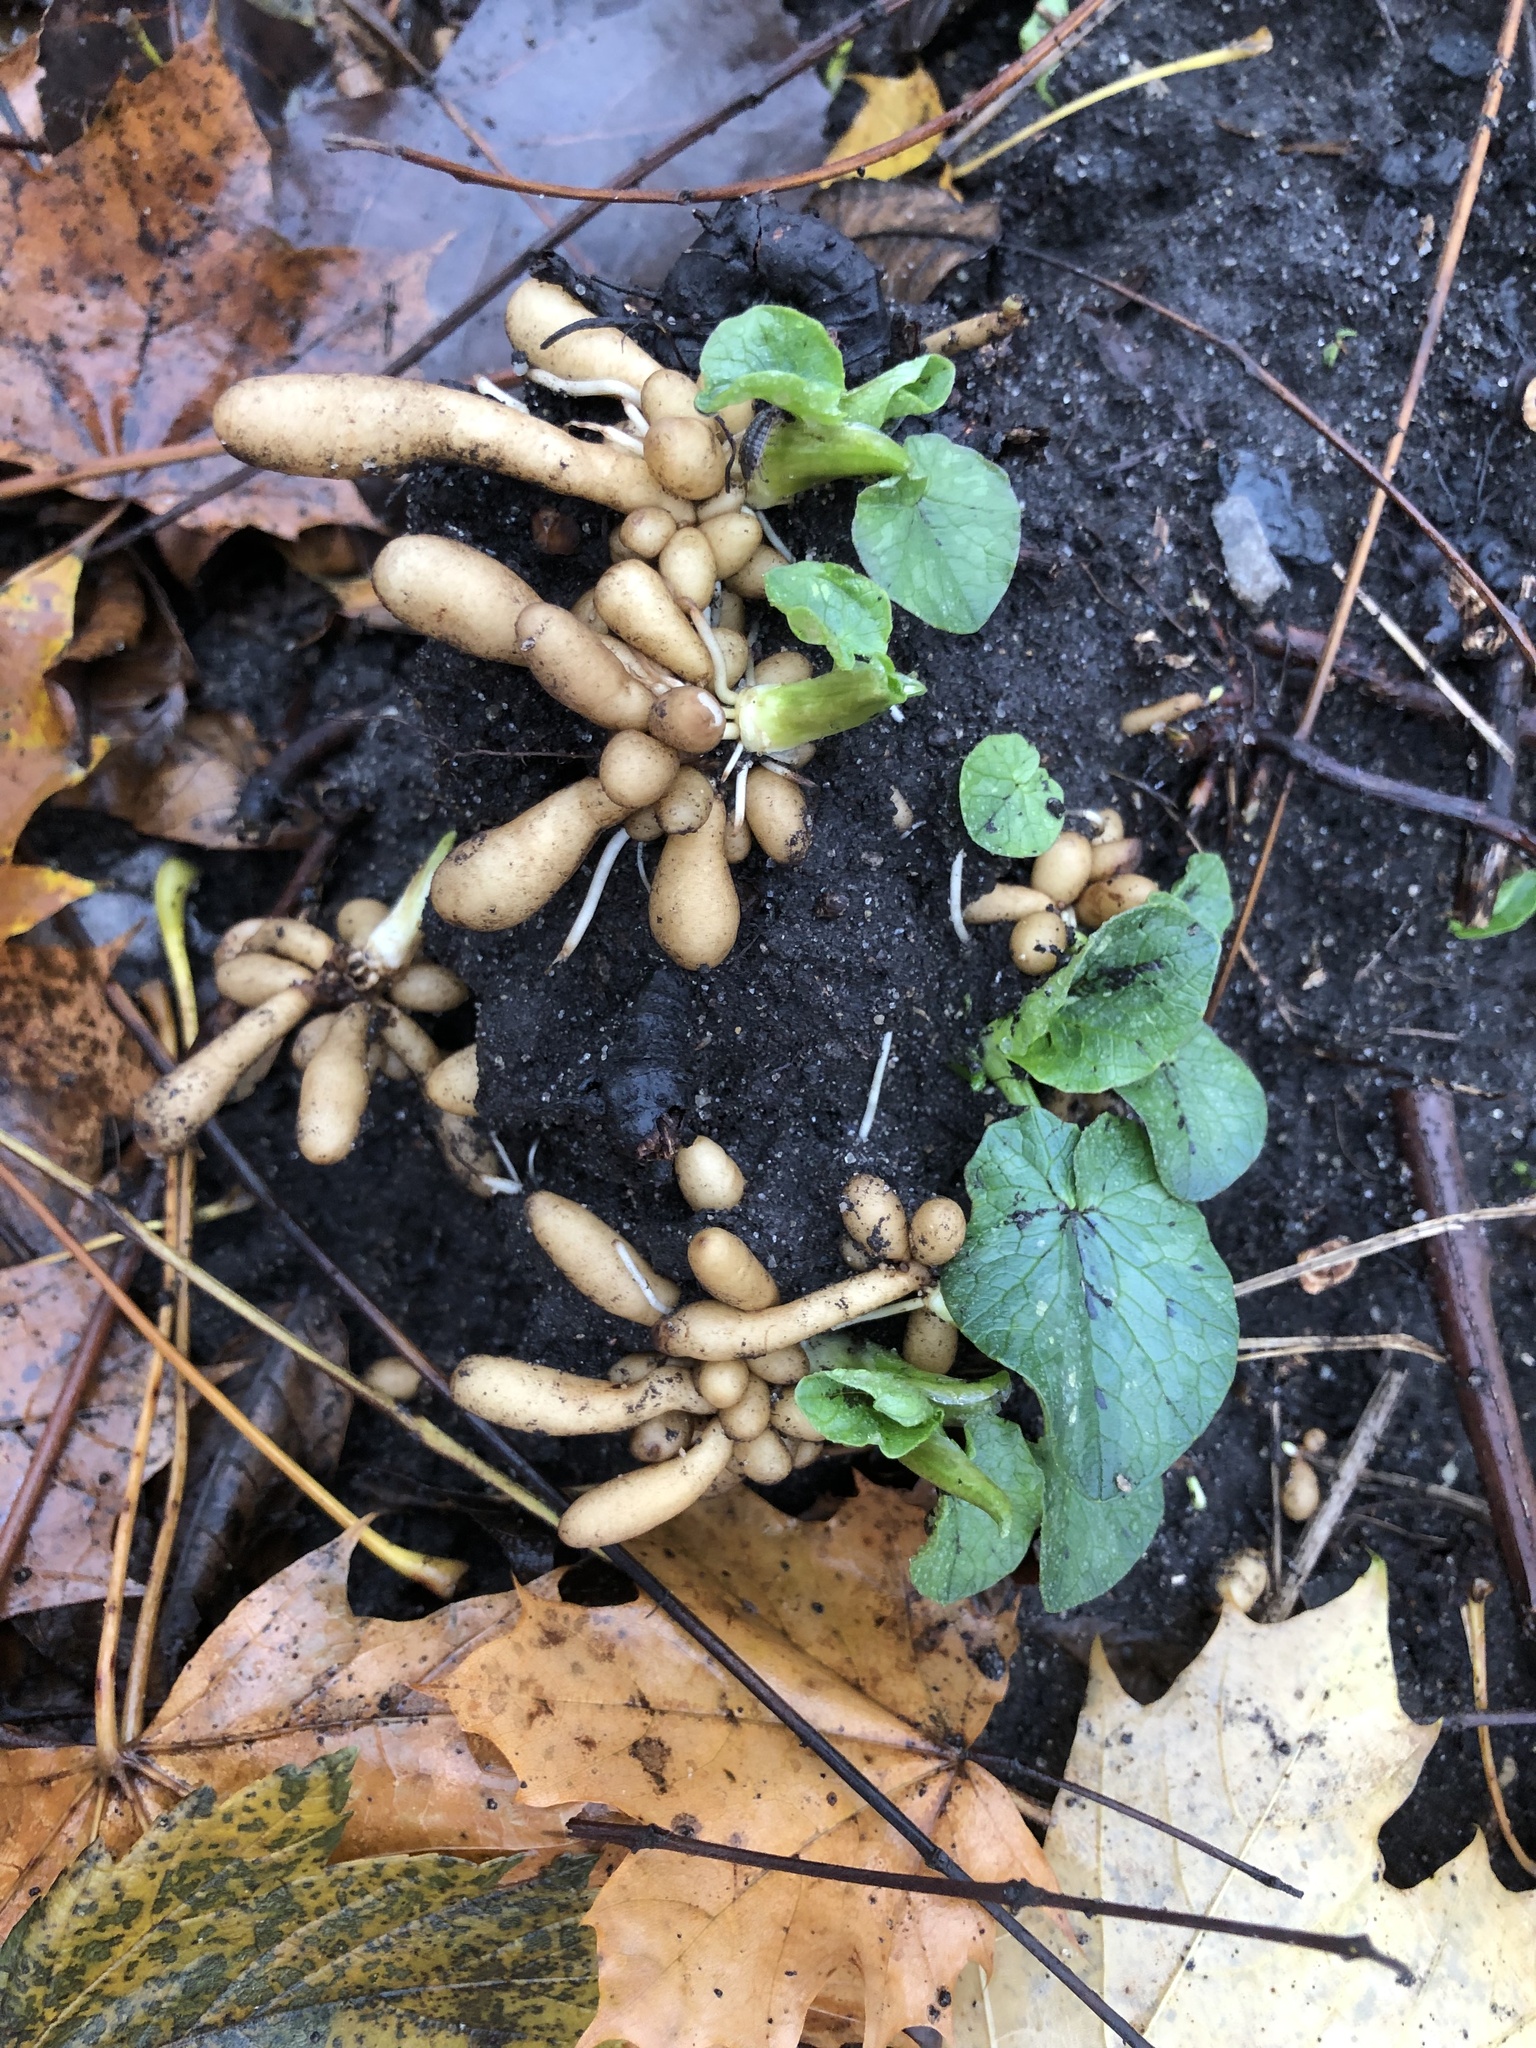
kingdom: Plantae
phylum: Tracheophyta
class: Magnoliopsida
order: Ranunculales
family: Ranunculaceae
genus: Ficaria
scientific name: Ficaria verna
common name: Lesser celandine
